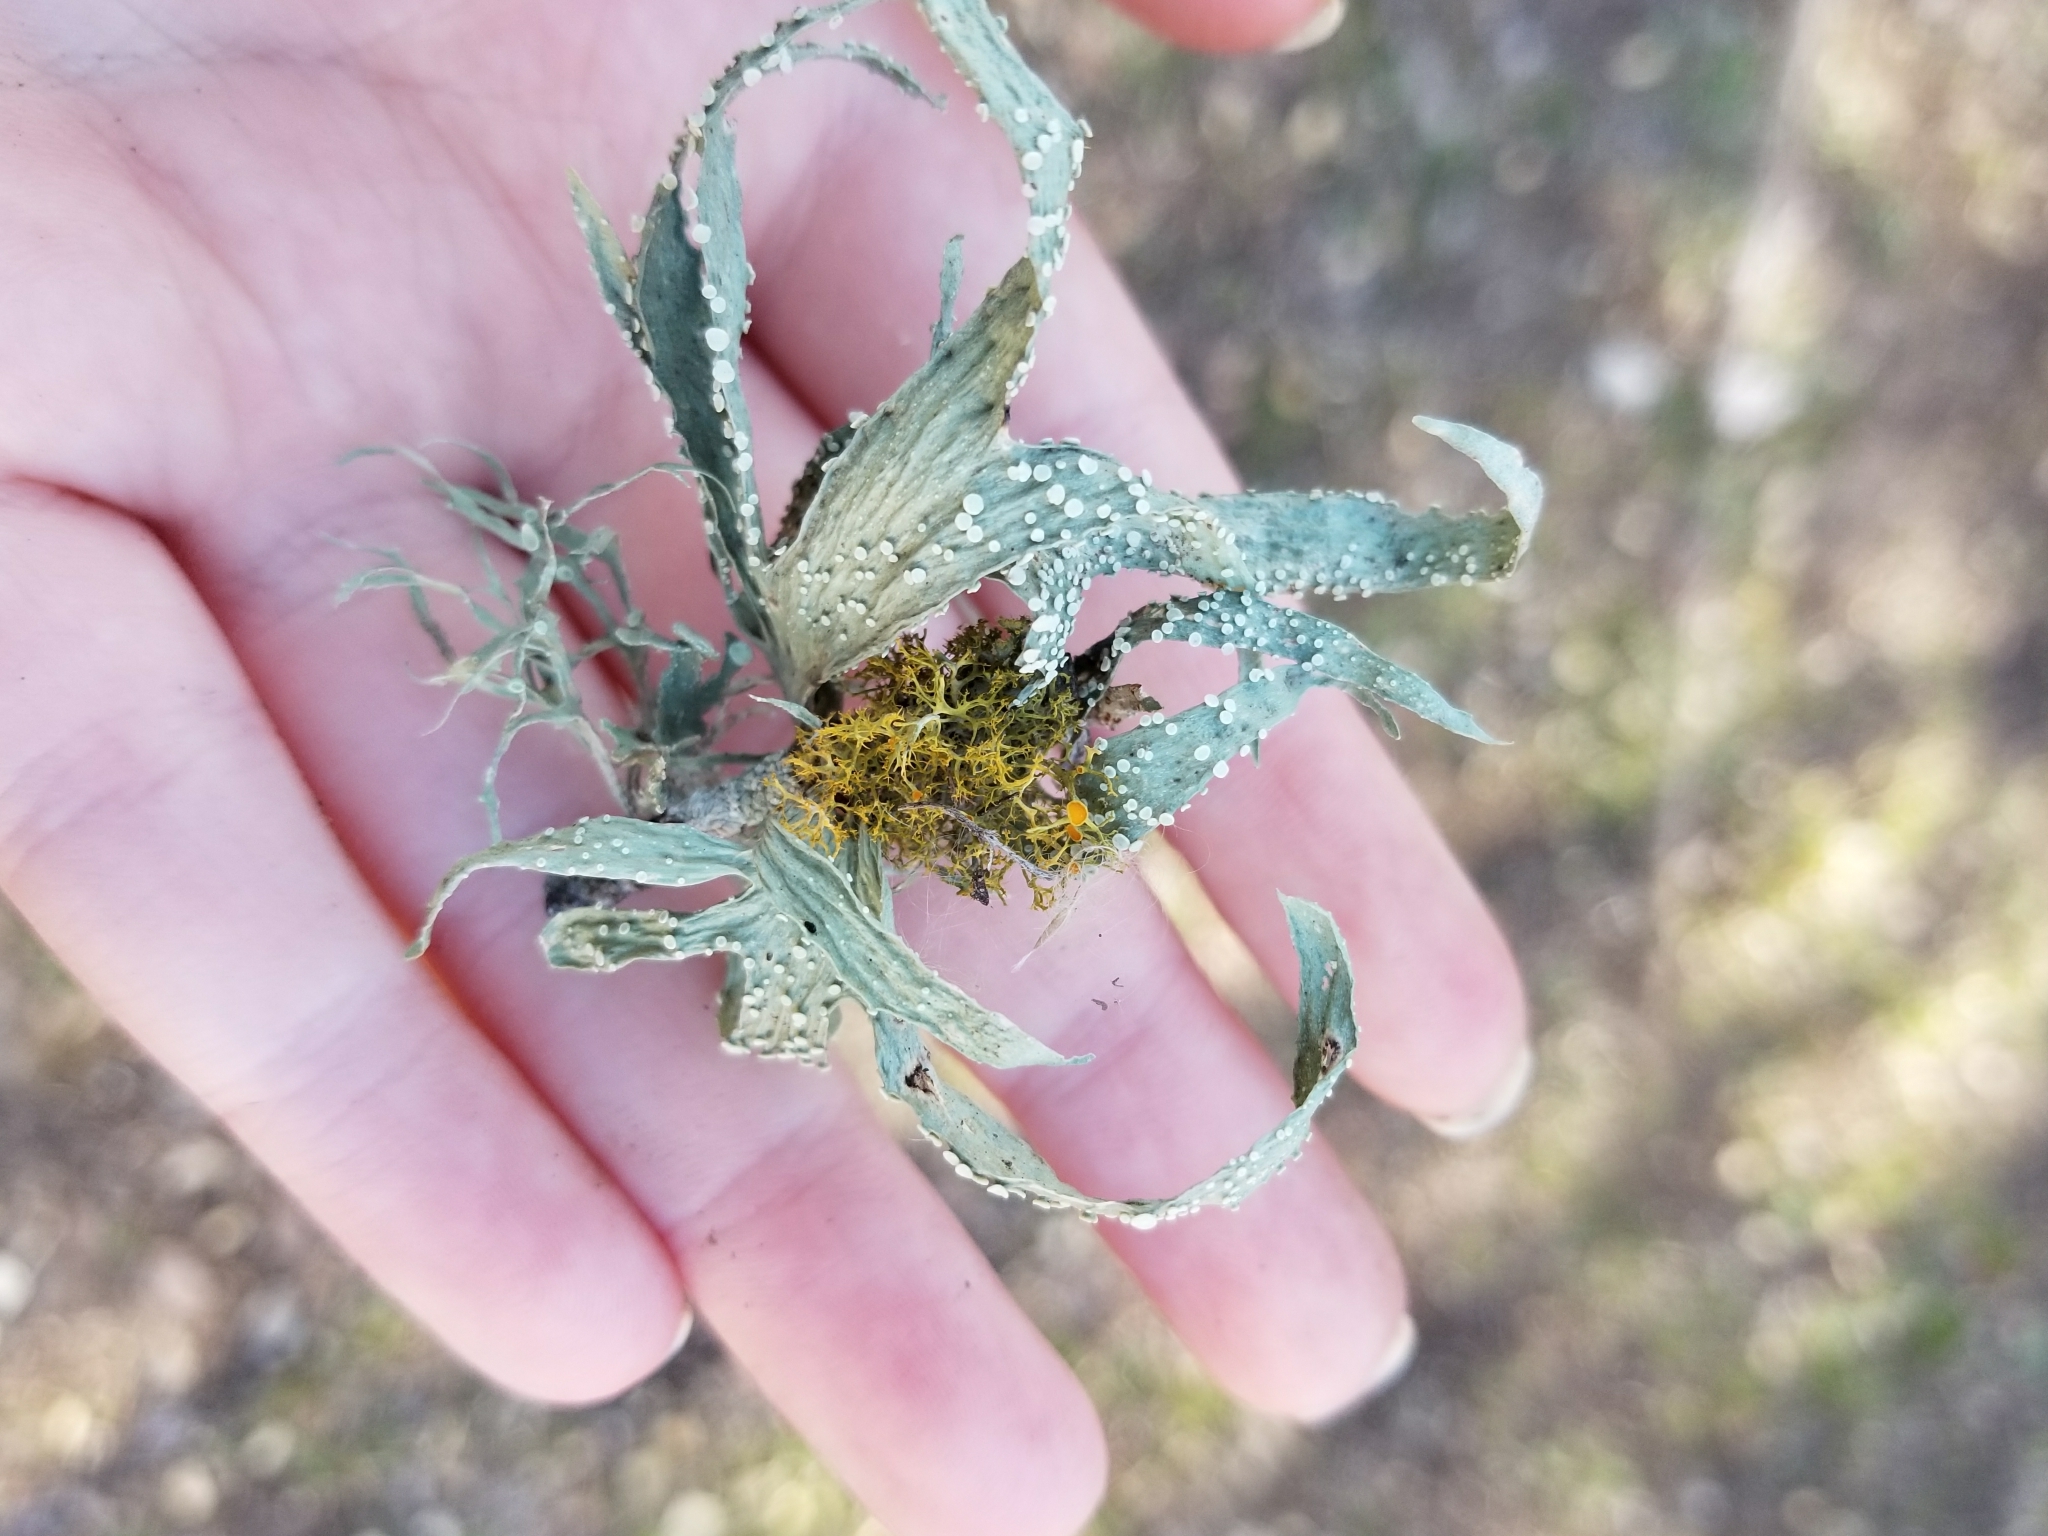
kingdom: Fungi
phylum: Ascomycota
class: Lecanoromycetes
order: Lecanorales
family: Ramalinaceae
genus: Ramalina
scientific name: Ramalina celastri
